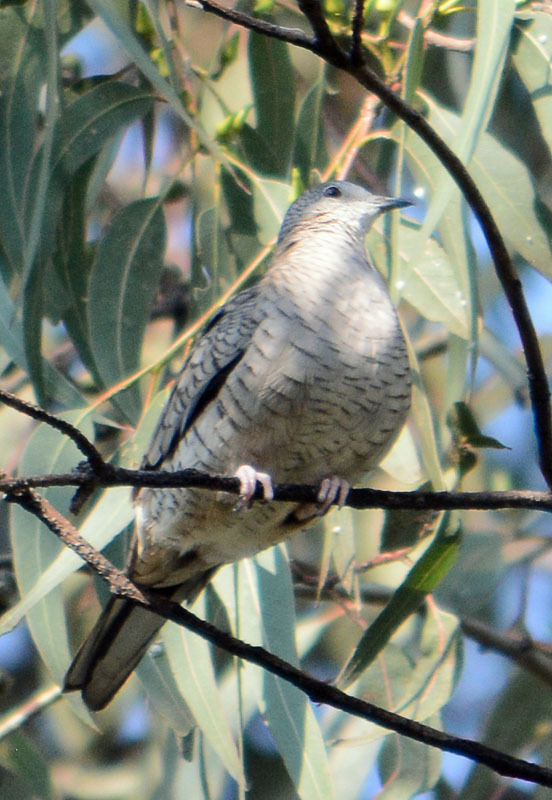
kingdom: Animalia
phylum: Chordata
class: Aves
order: Columbiformes
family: Columbidae
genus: Columbina
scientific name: Columbina inca
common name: Inca dove
